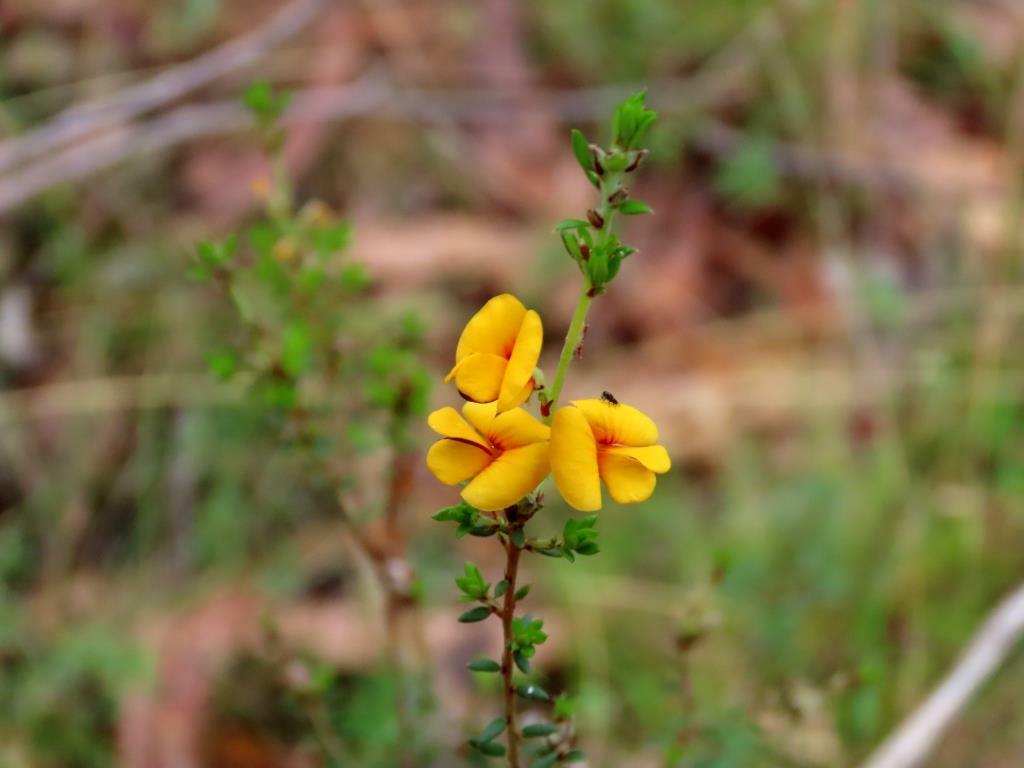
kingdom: Plantae
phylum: Tracheophyta
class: Magnoliopsida
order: Fabales
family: Fabaceae
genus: Pultenaea
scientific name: Pultenaea gunnii
